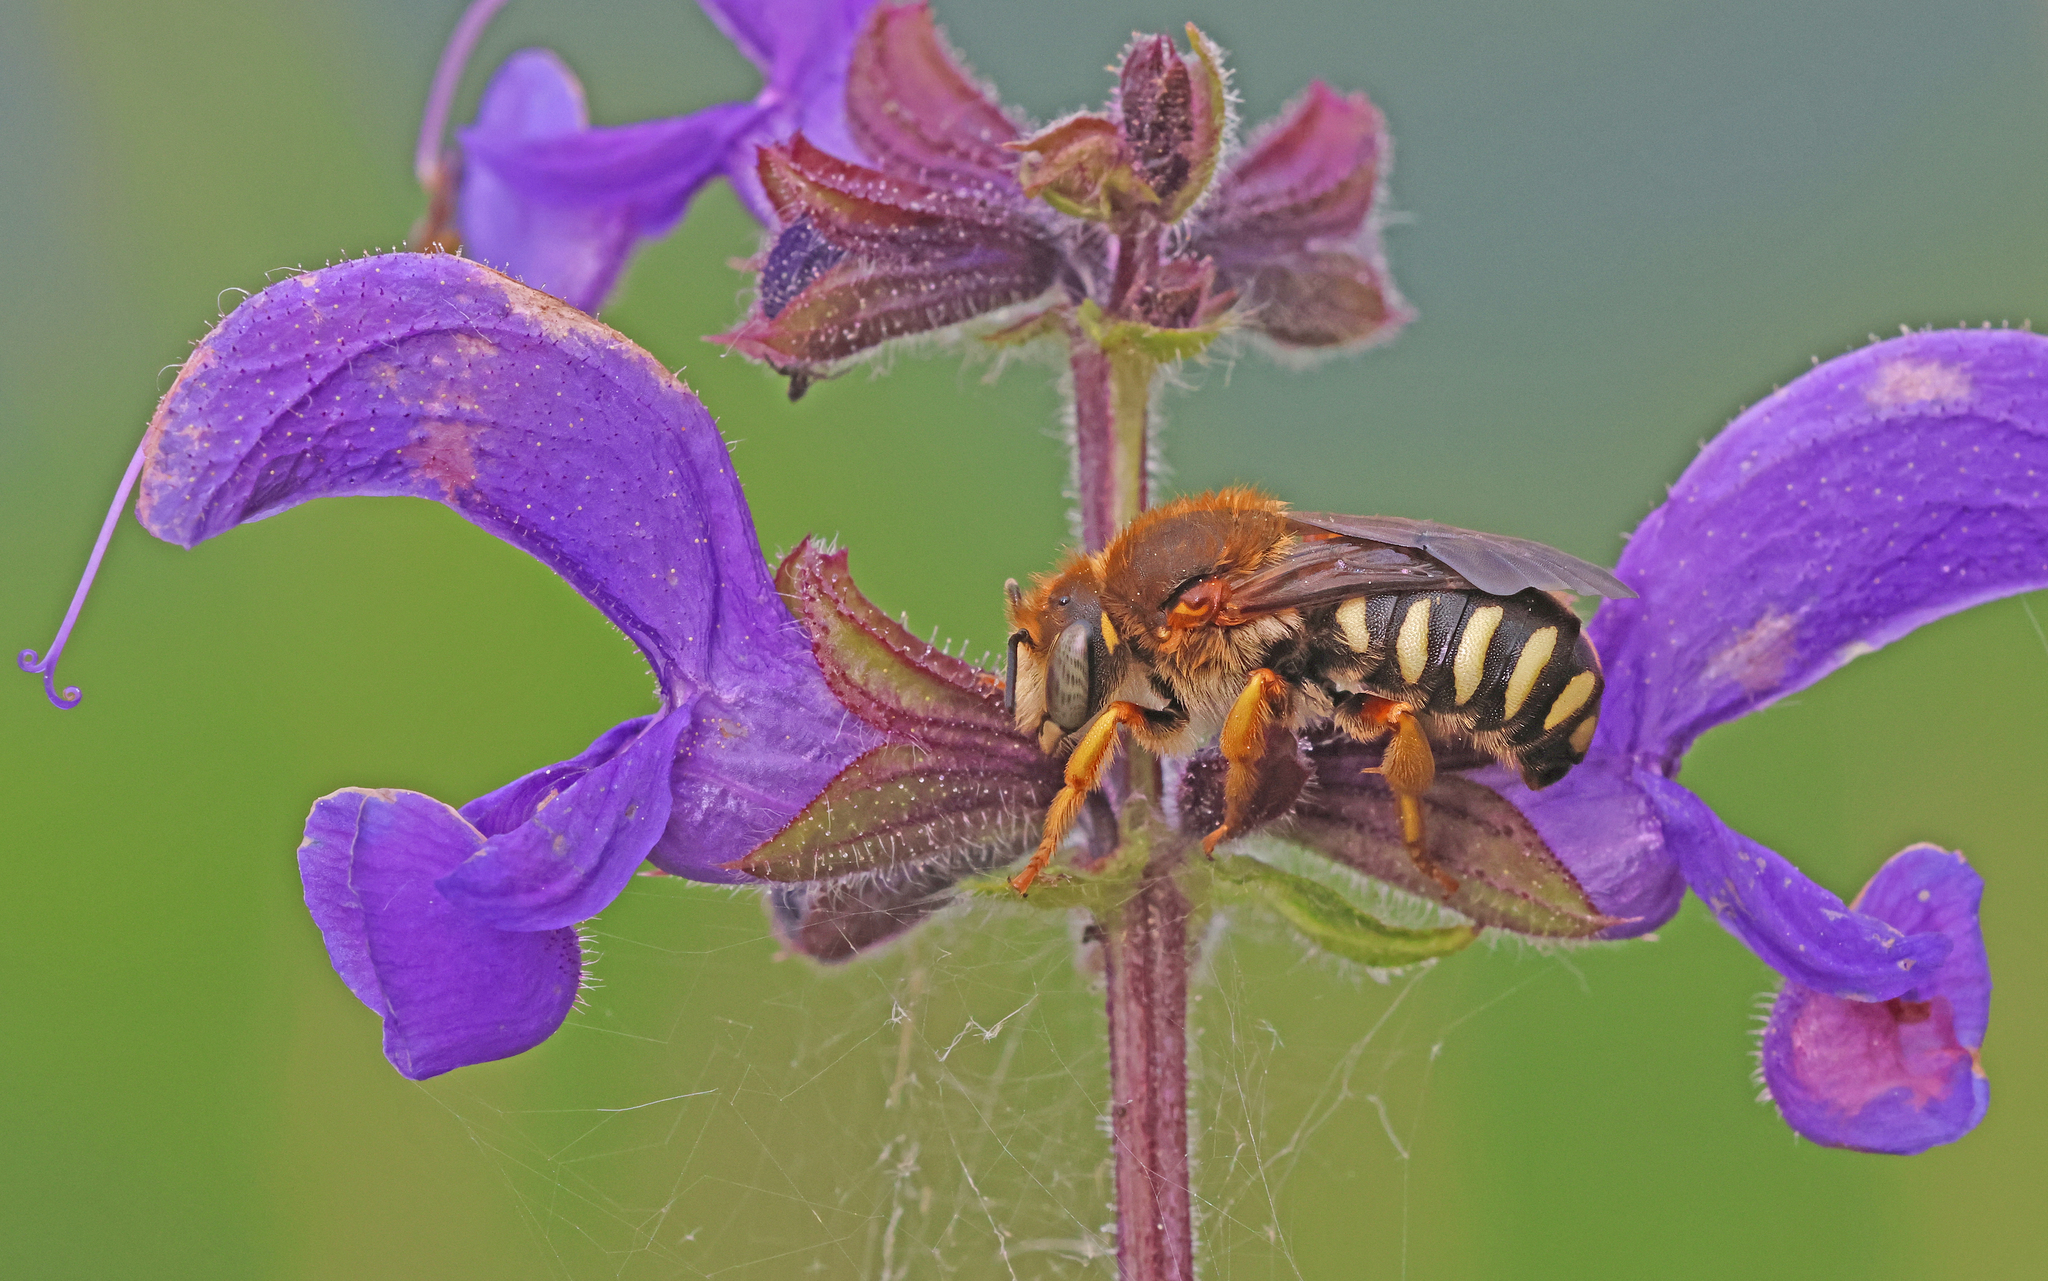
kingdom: Animalia
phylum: Arthropoda
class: Insecta
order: Hymenoptera
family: Megachilidae
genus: Rhodanthidium
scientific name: Rhodanthidium septemdentatum
